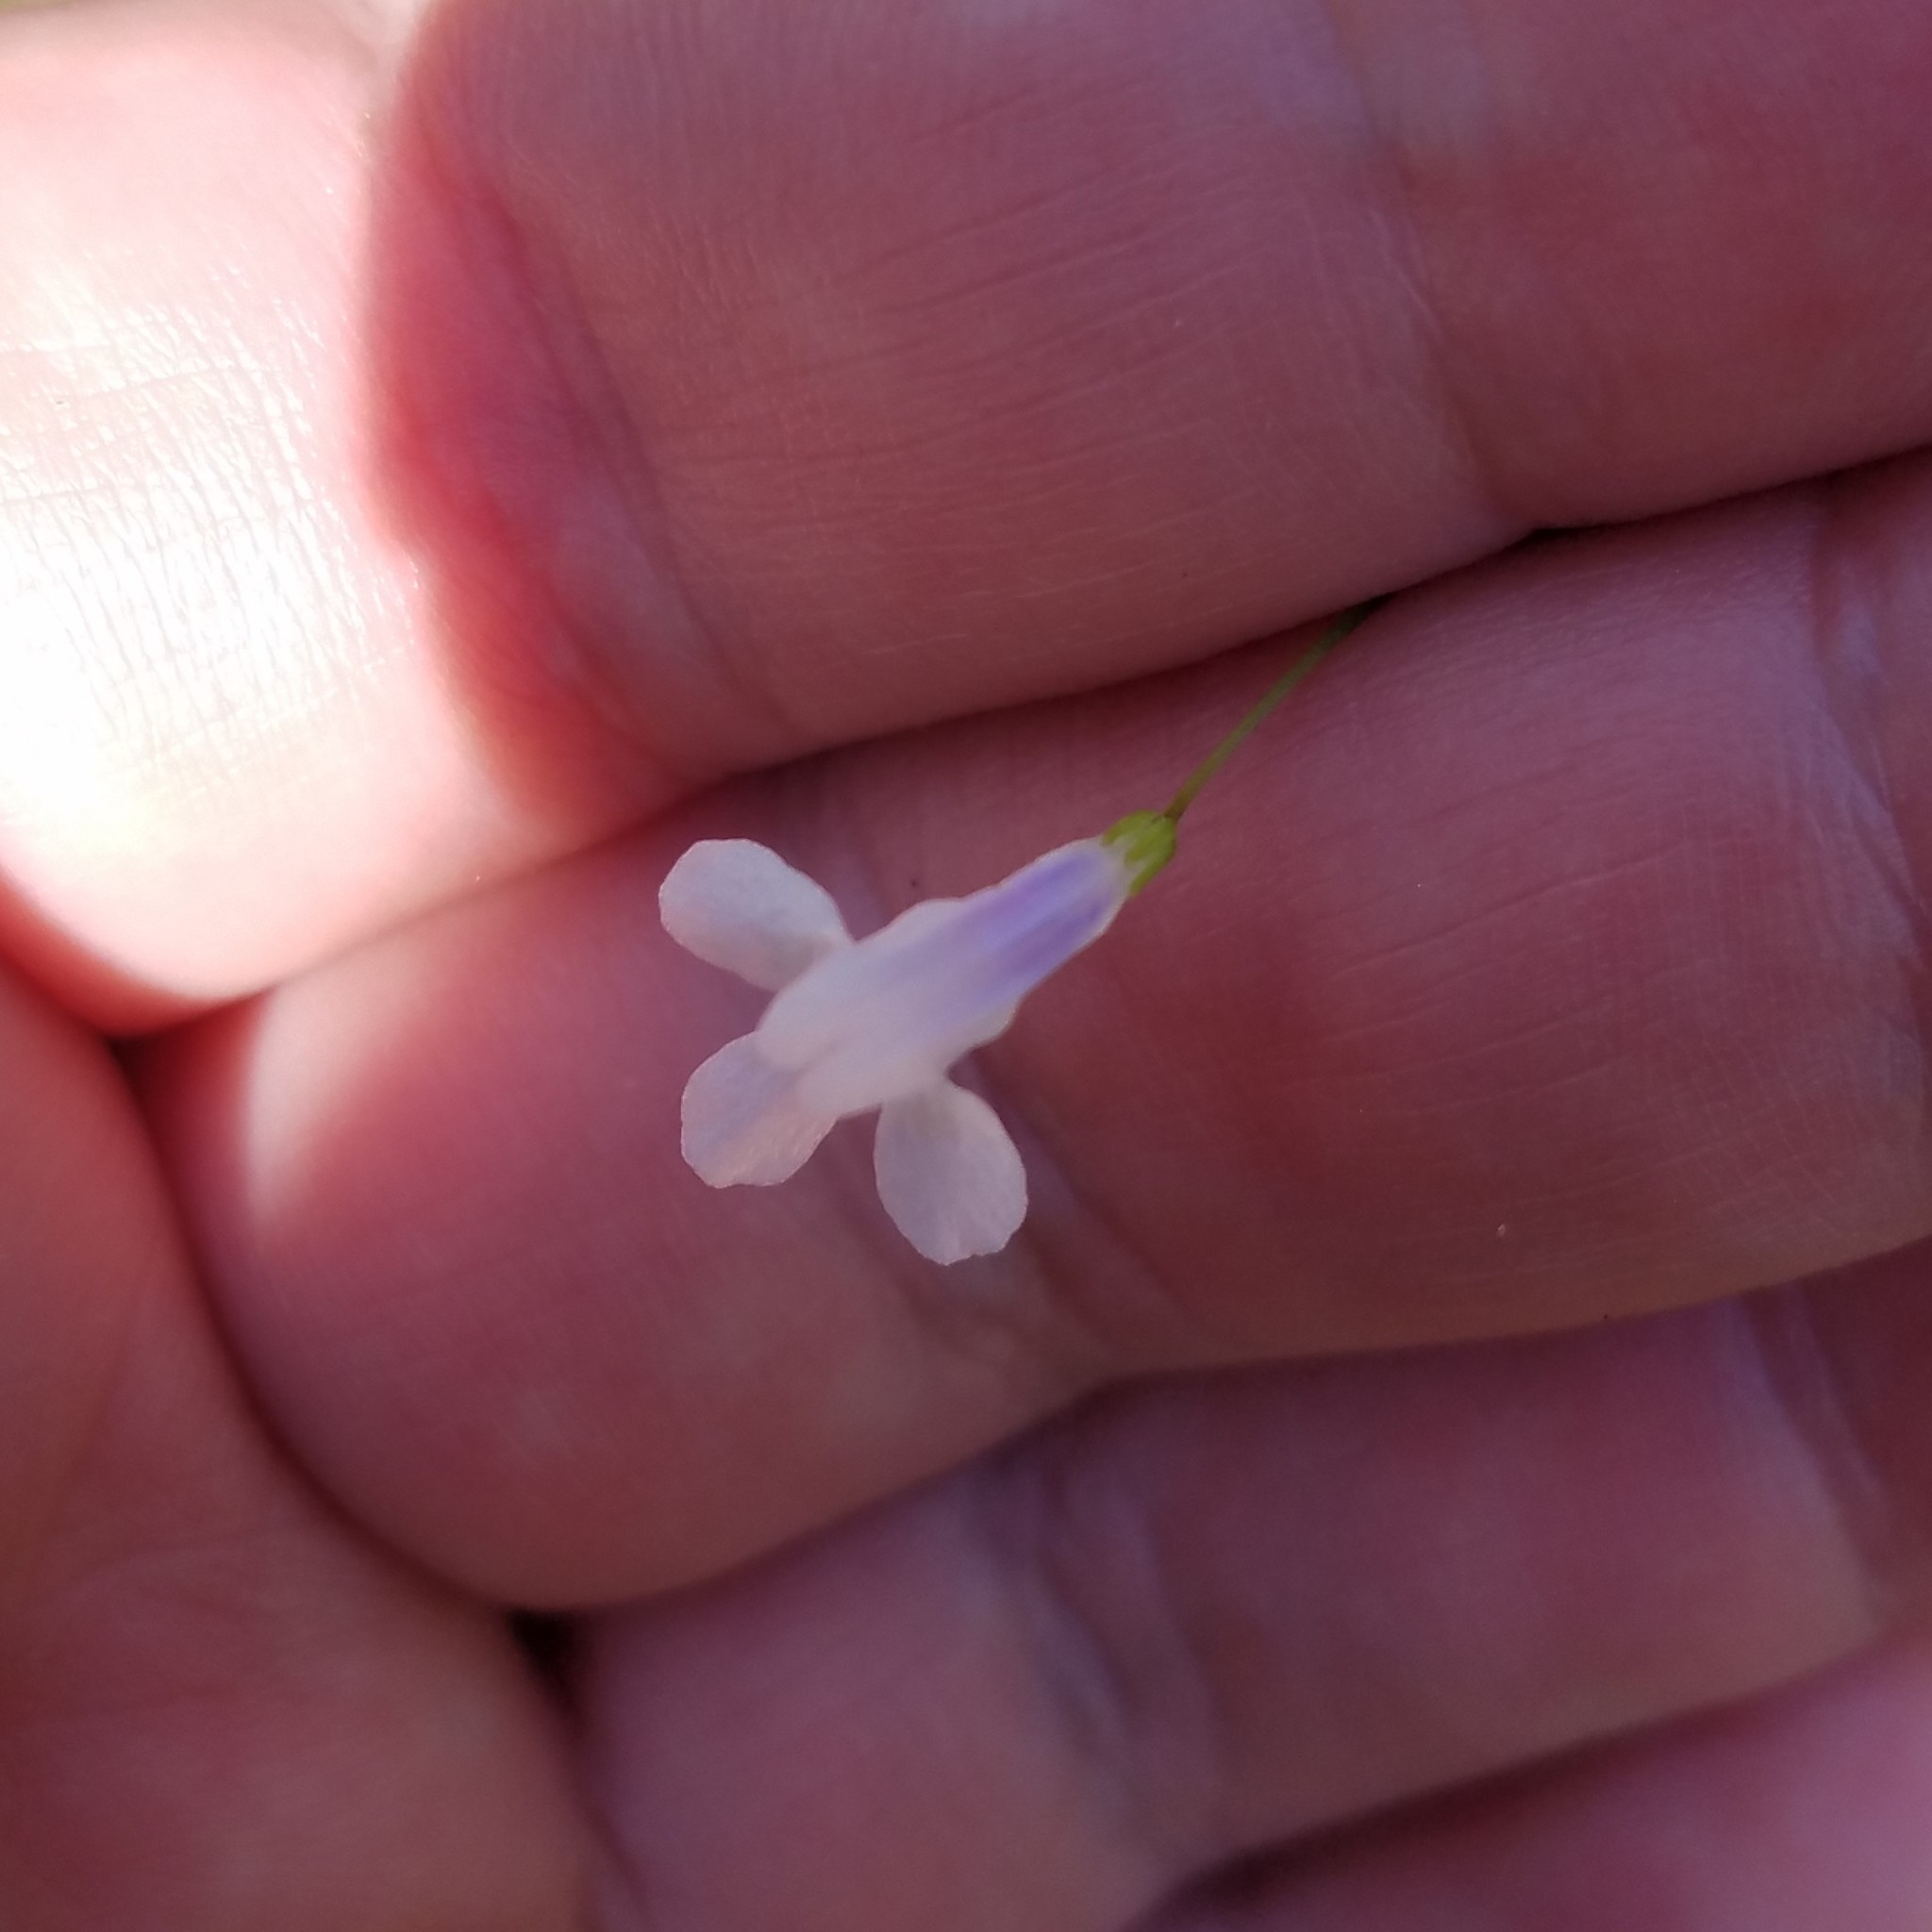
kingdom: Plantae
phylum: Tracheophyta
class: Magnoliopsida
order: Lamiales
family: Linderniaceae
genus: Lindernia
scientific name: Lindernia monticola
